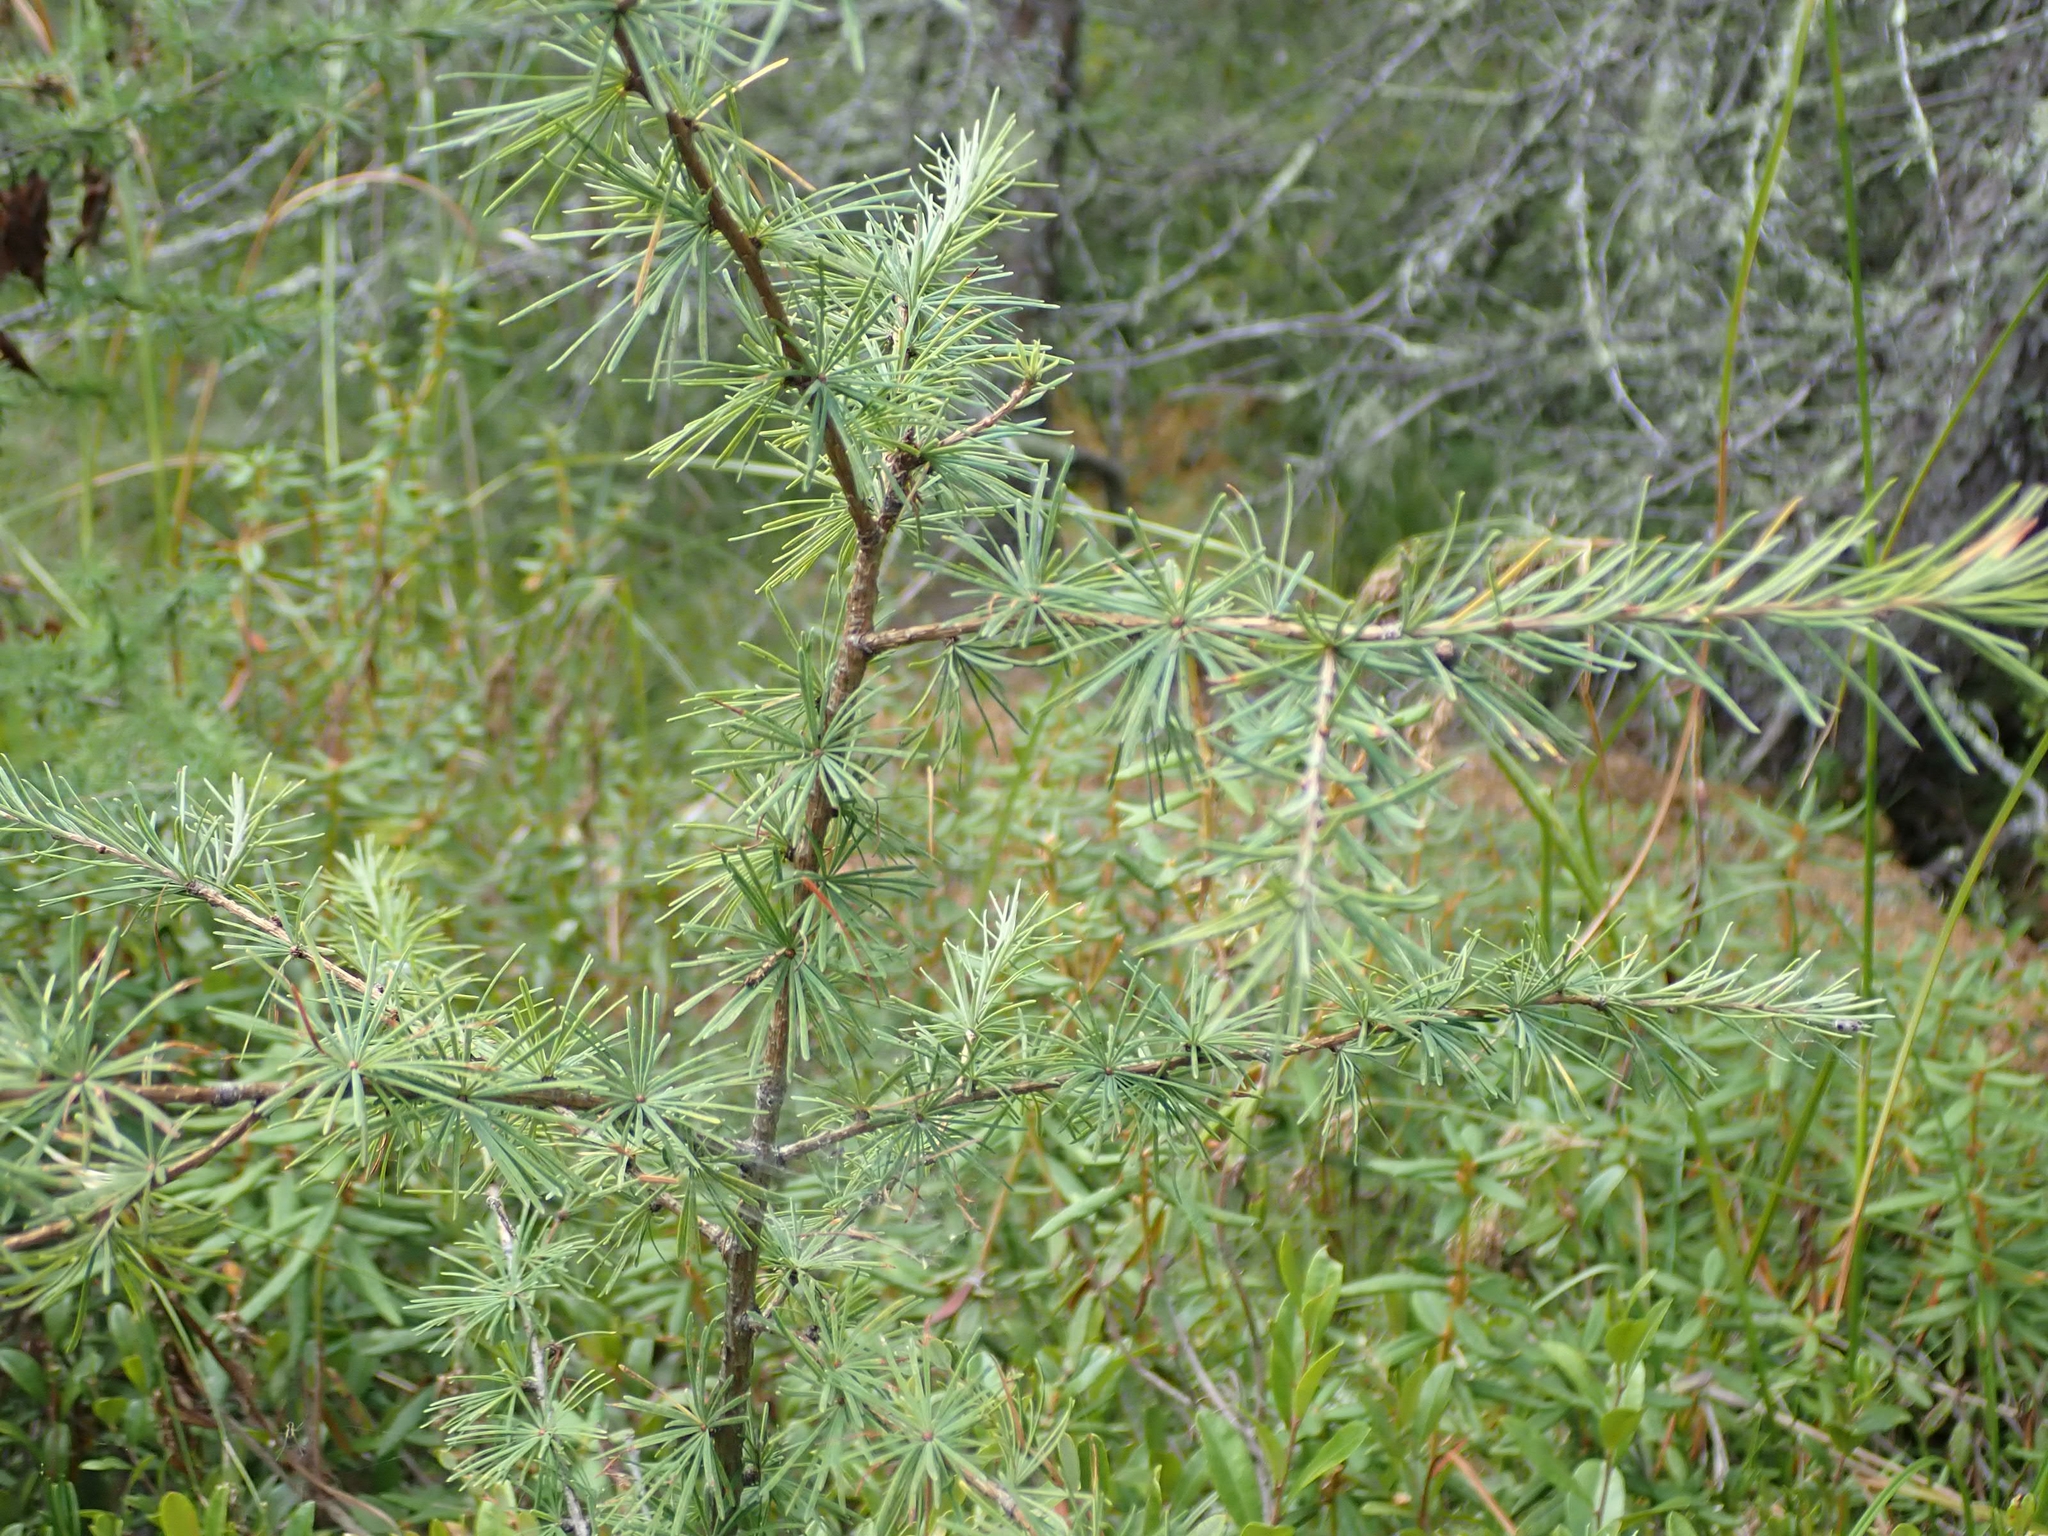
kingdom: Plantae
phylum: Tracheophyta
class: Pinopsida
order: Pinales
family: Pinaceae
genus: Larix
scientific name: Larix laricina
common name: American larch
